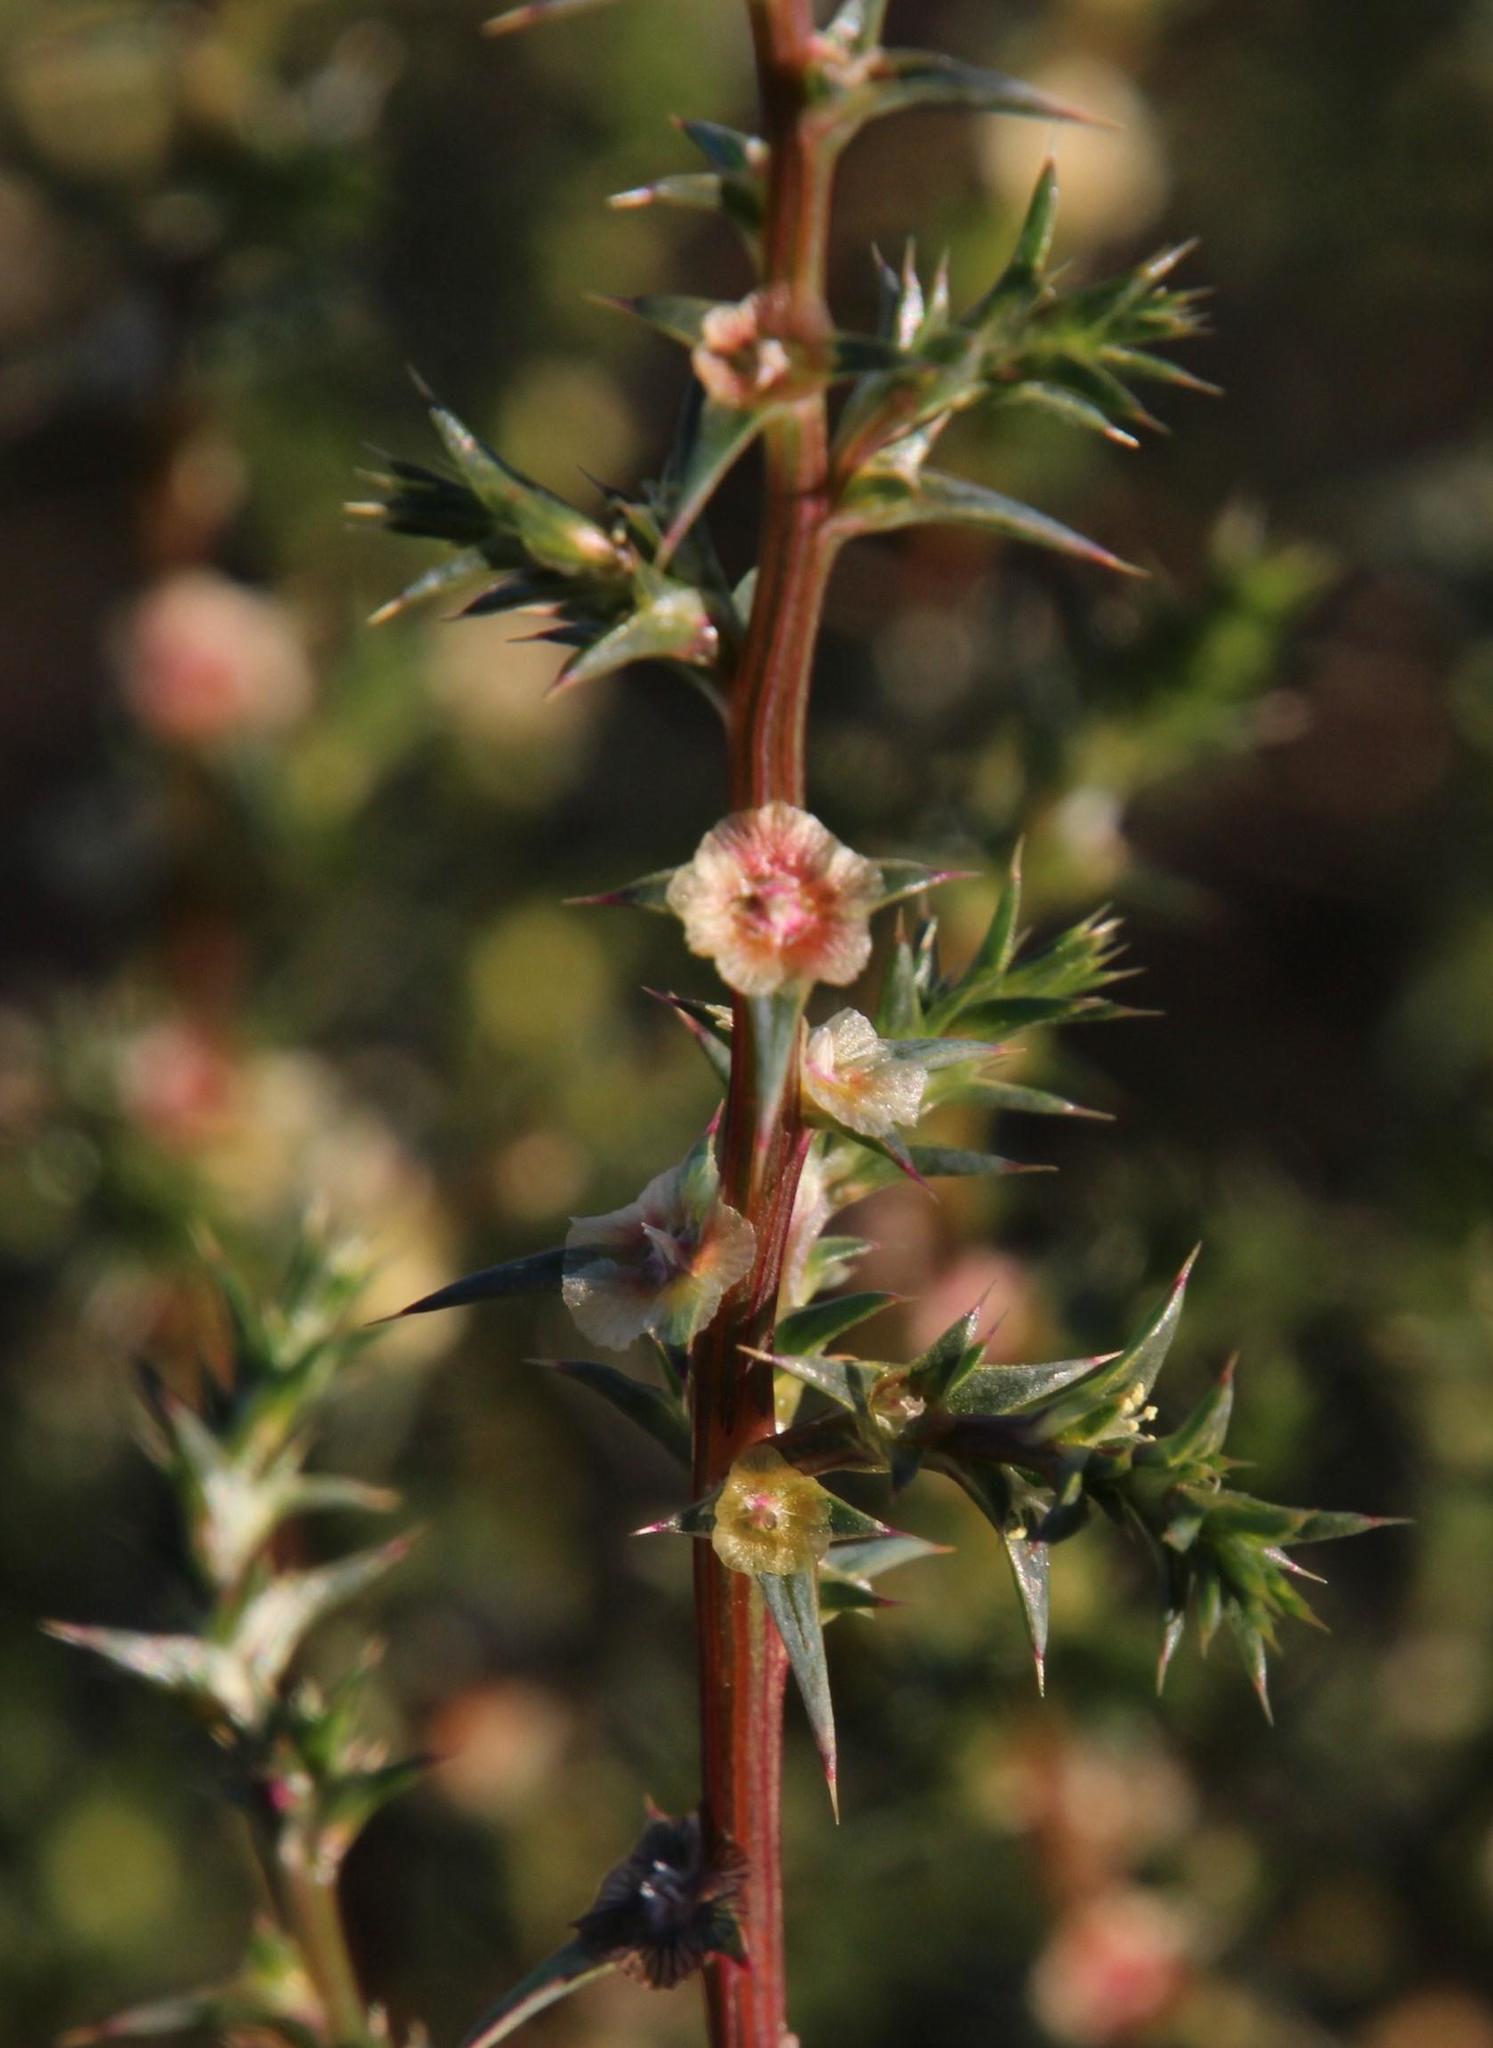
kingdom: Plantae
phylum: Tracheophyta
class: Magnoliopsida
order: Caryophyllales
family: Amaranthaceae
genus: Salsola
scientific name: Salsola kali
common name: Saltwort
